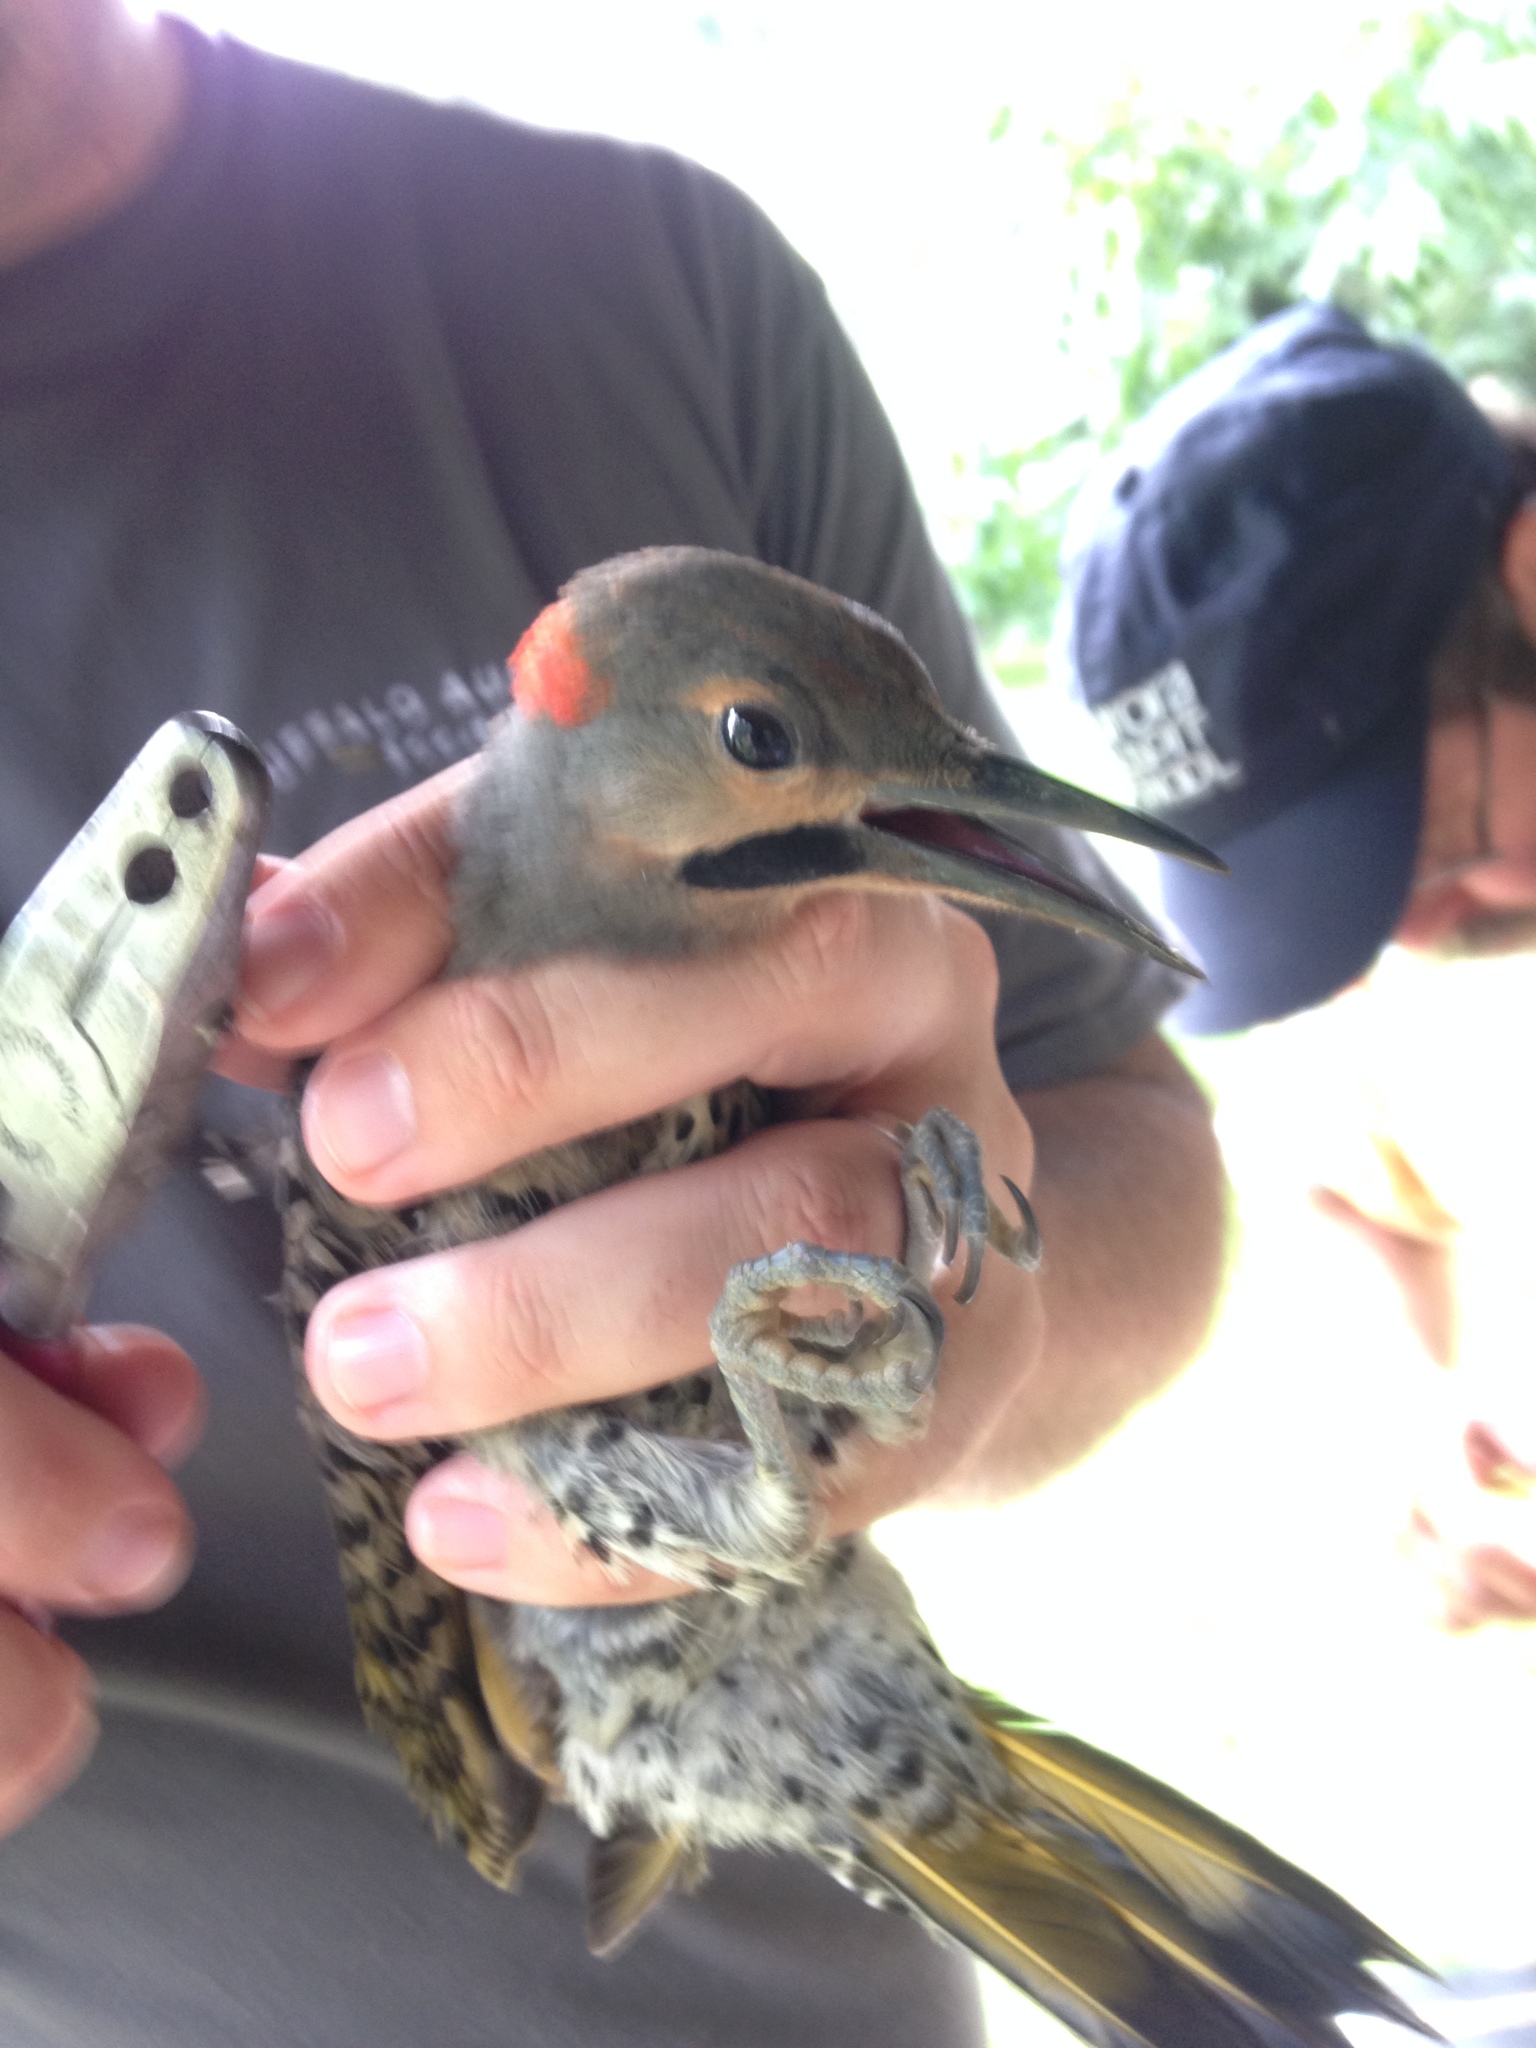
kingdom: Animalia
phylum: Chordata
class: Aves
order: Piciformes
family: Picidae
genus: Colaptes
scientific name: Colaptes auratus
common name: Northern flicker
